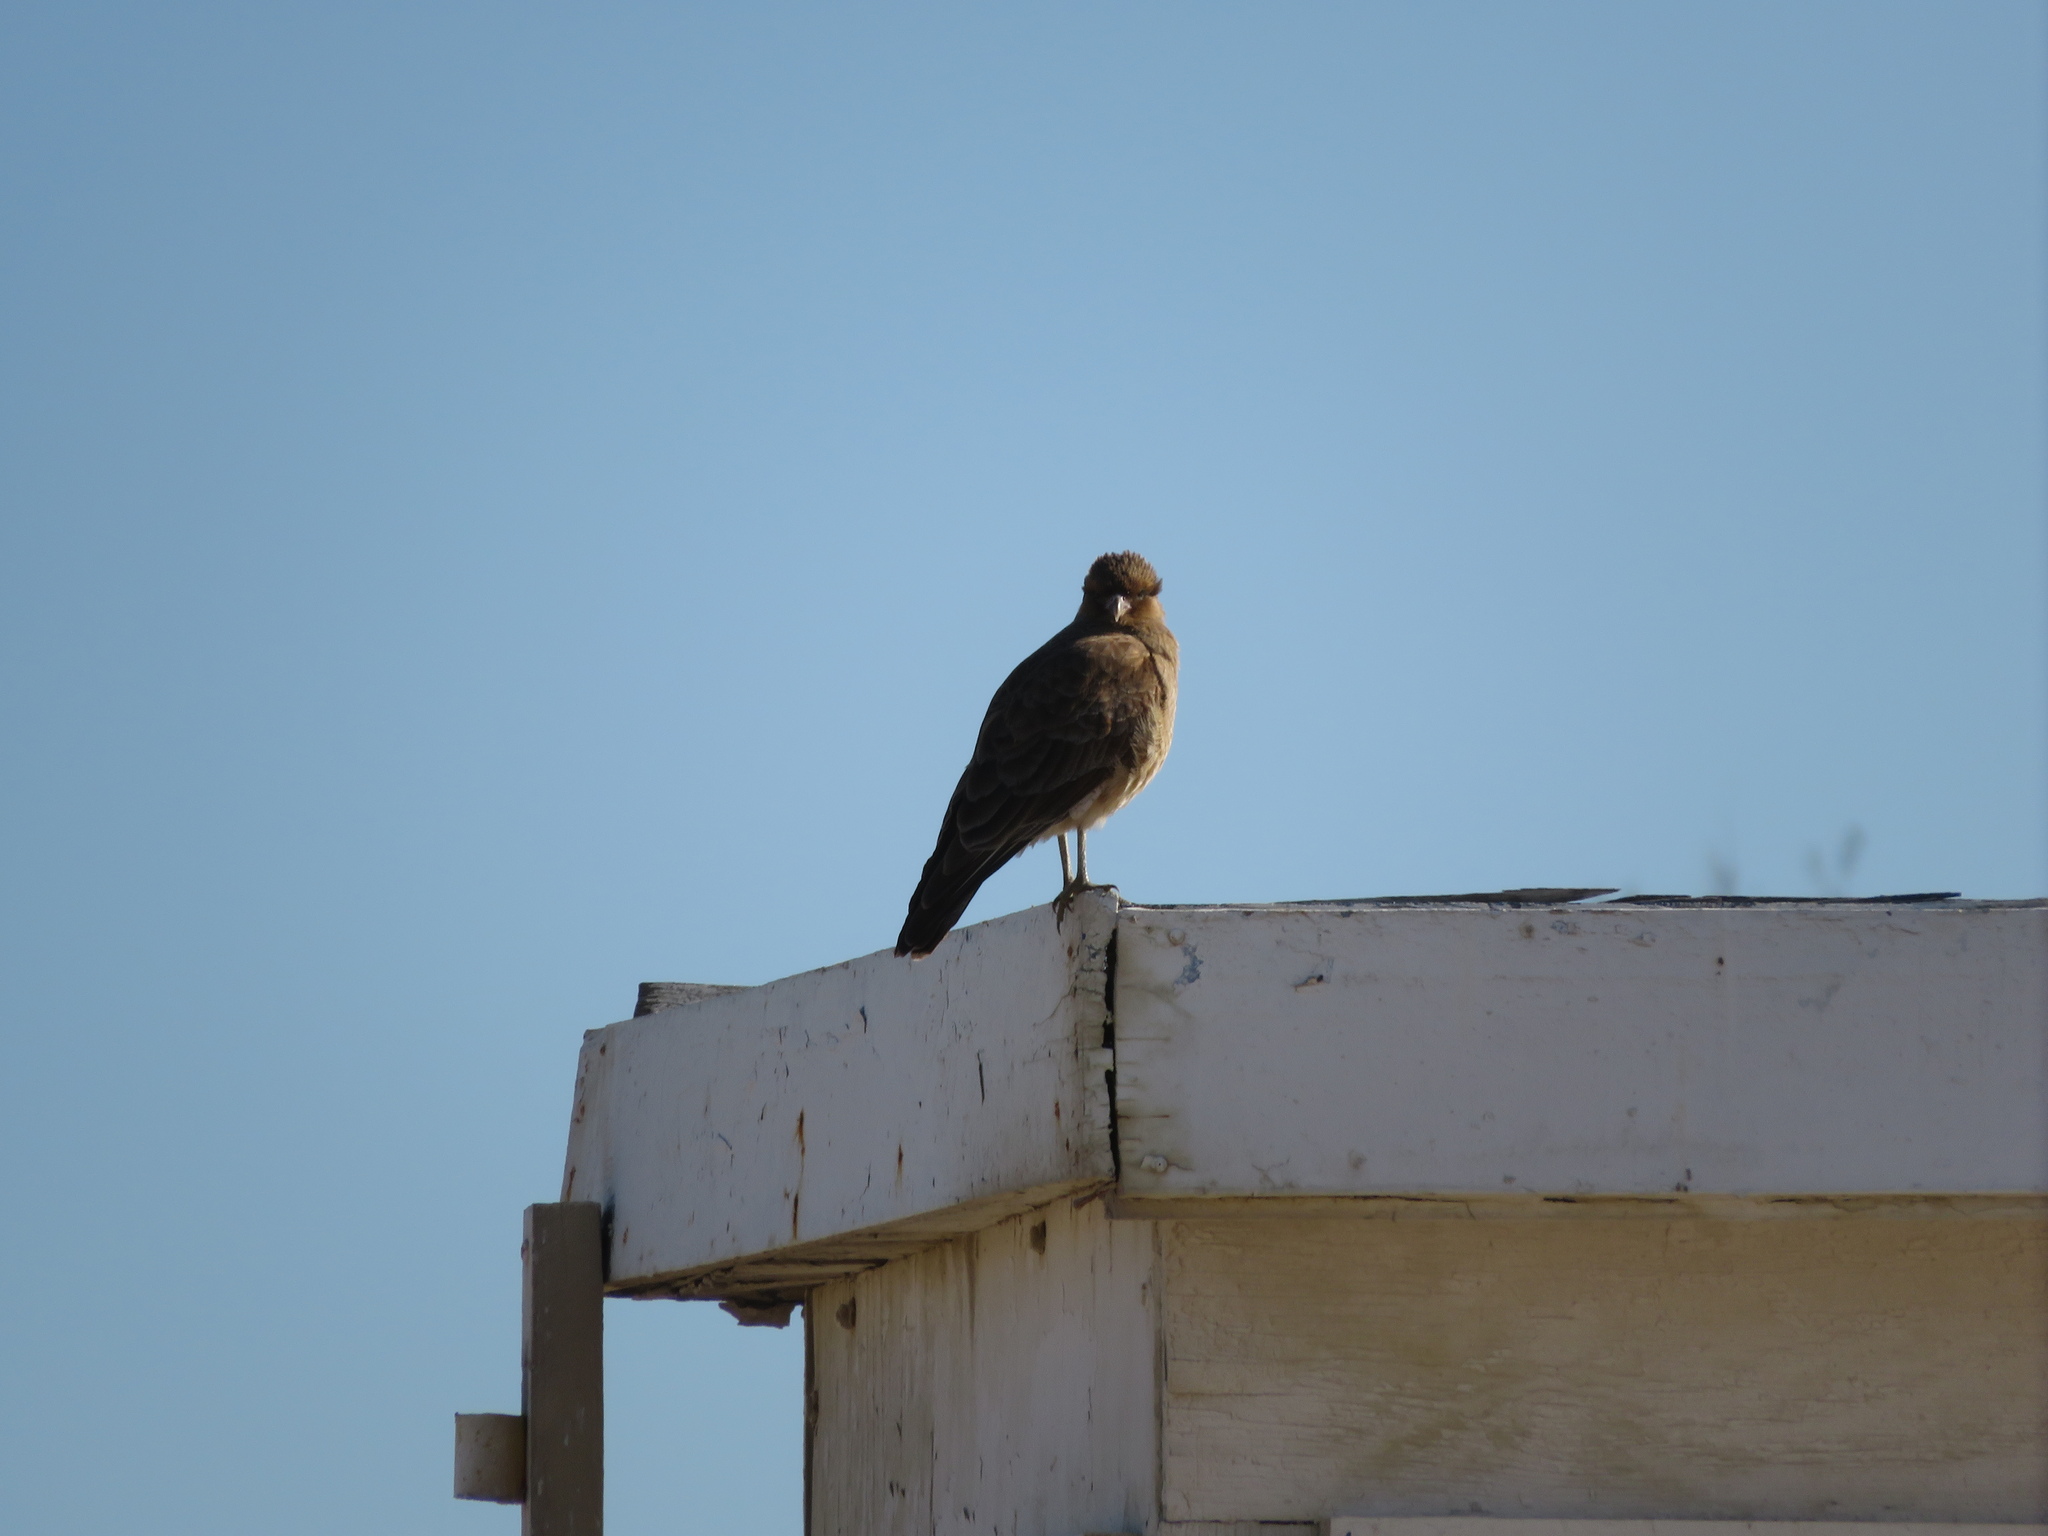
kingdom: Animalia
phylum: Chordata
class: Aves
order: Falconiformes
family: Falconidae
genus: Daptrius
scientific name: Daptrius
